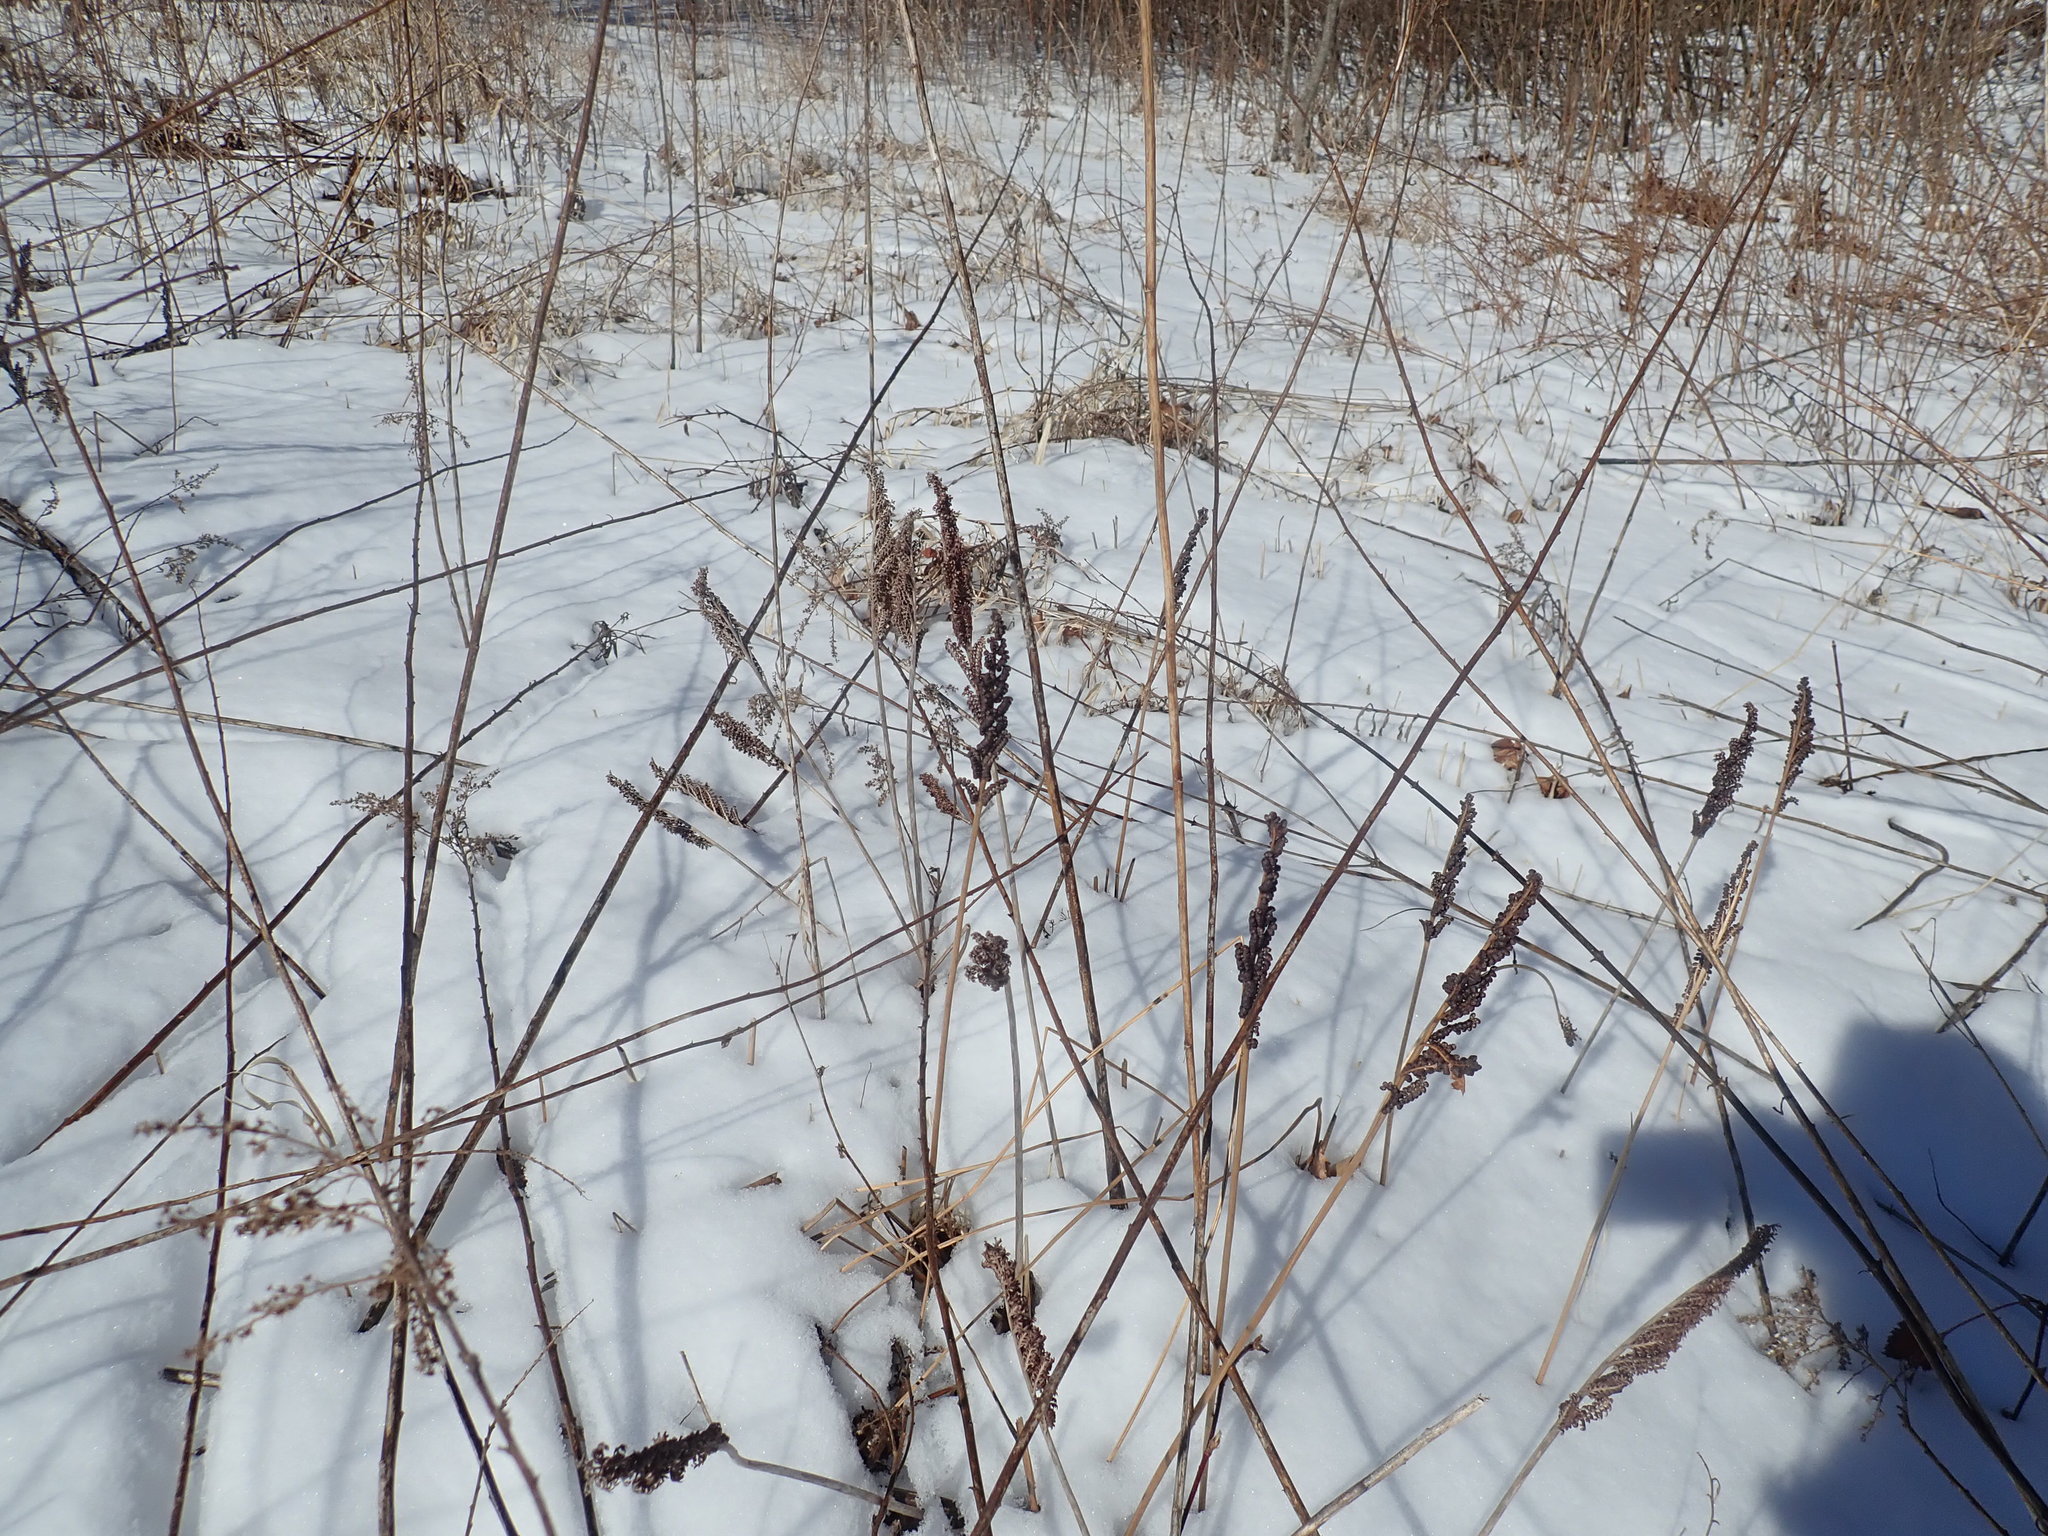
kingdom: Plantae
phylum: Tracheophyta
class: Polypodiopsida
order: Polypodiales
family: Onocleaceae
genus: Onoclea
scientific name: Onoclea sensibilis
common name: Sensitive fern
